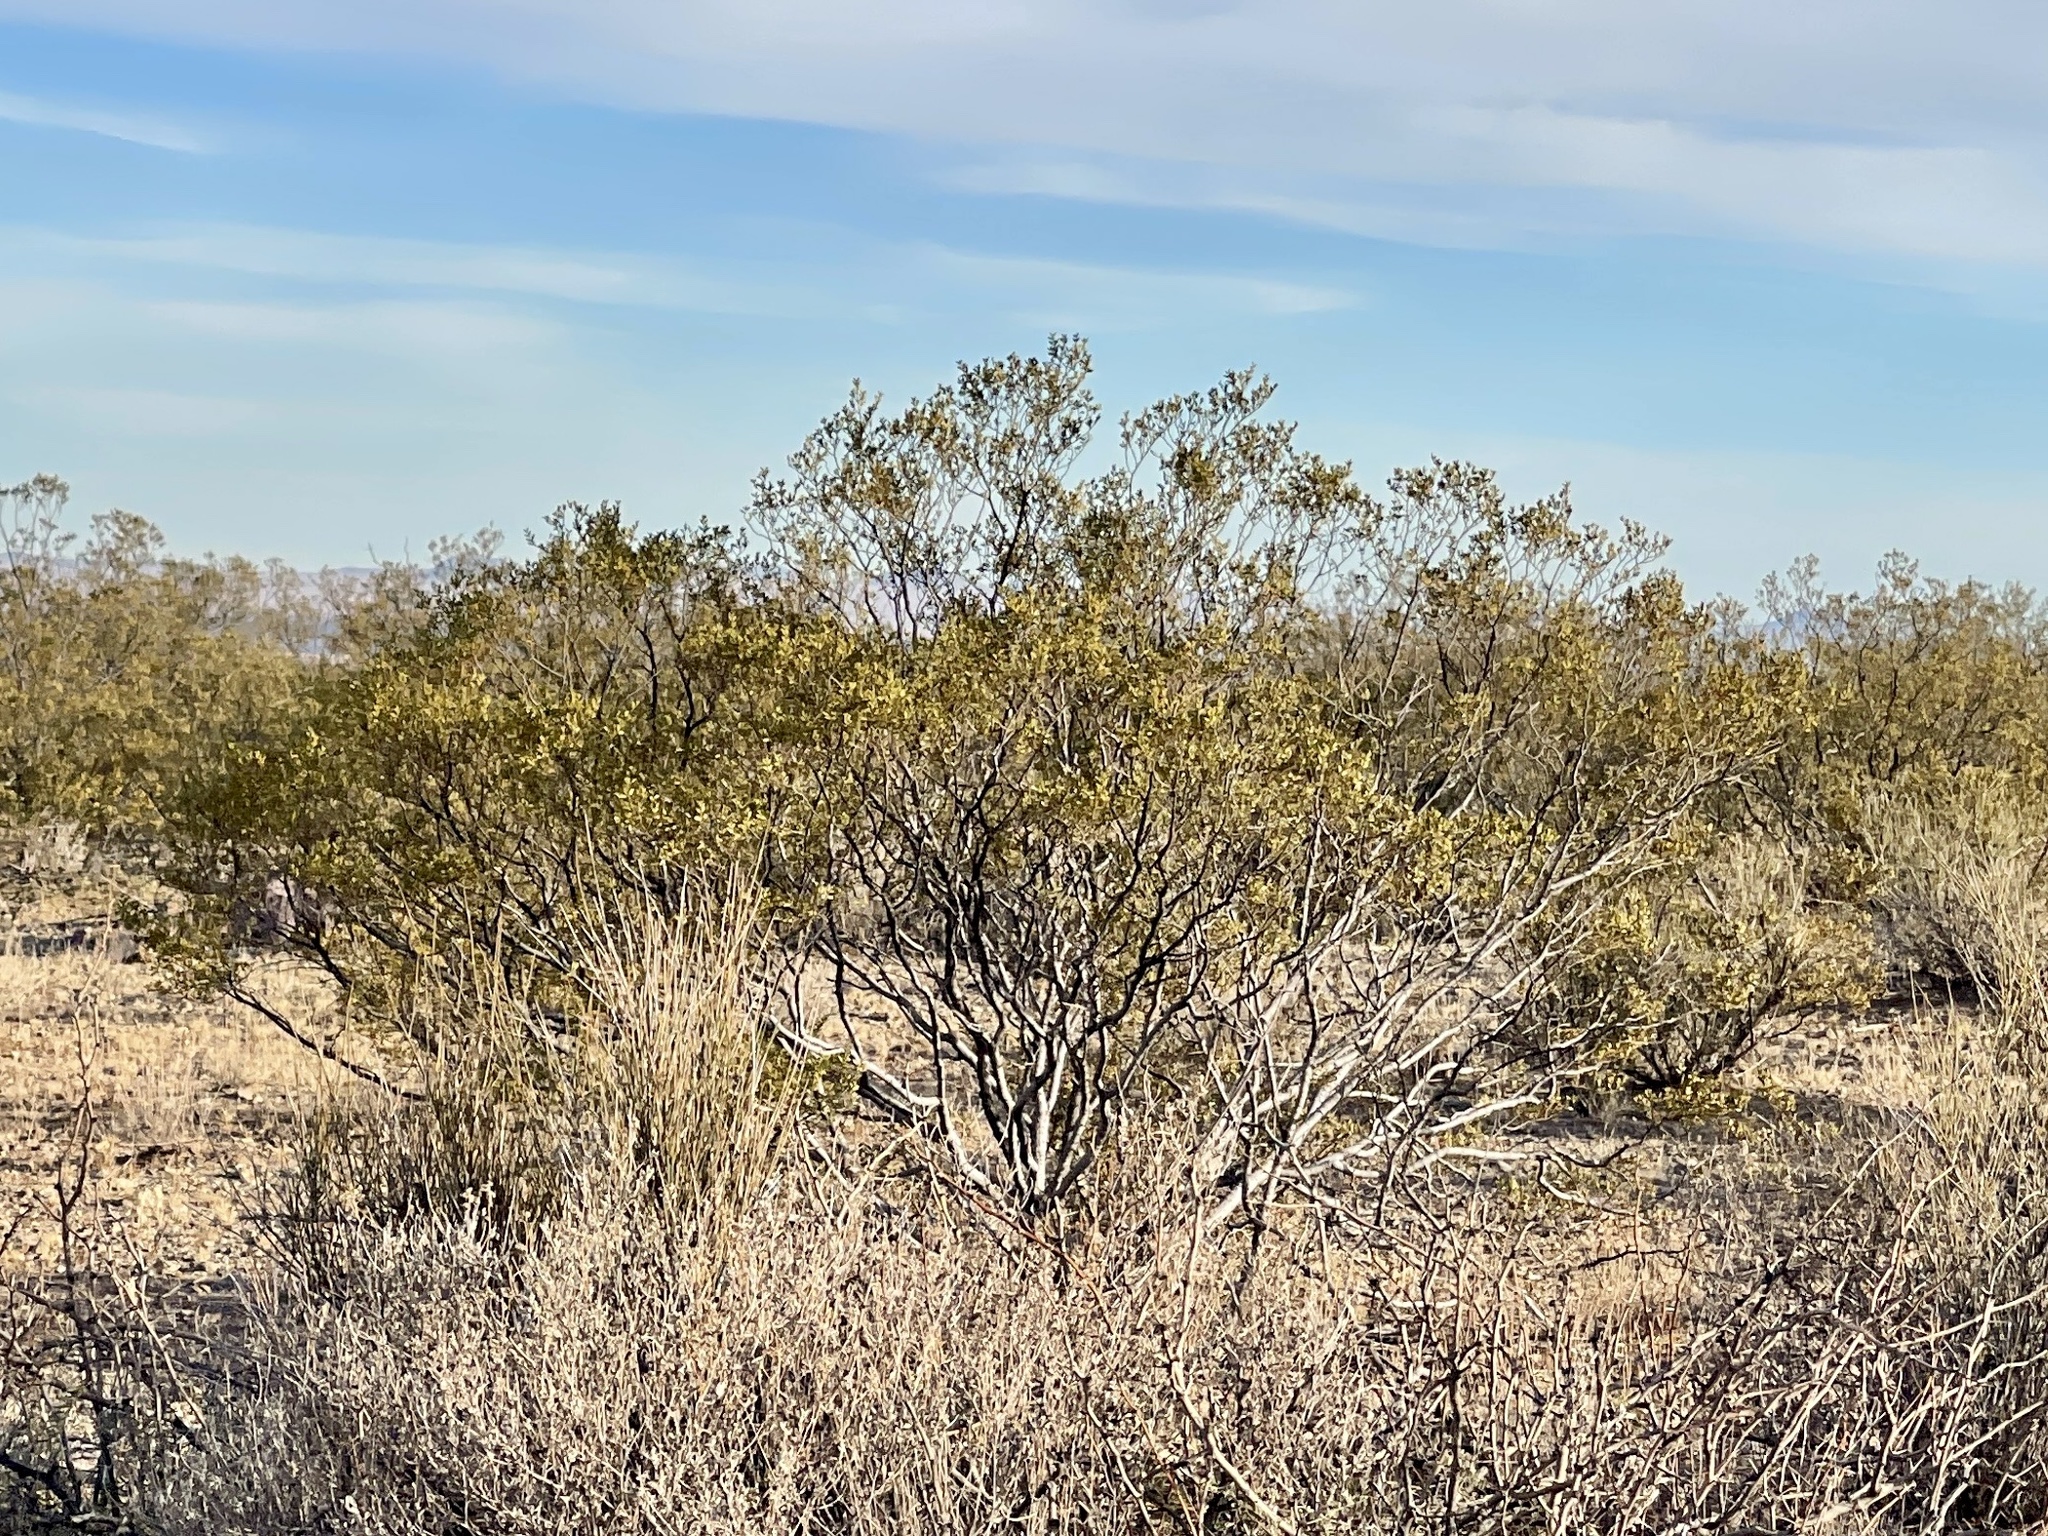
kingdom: Plantae
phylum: Tracheophyta
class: Magnoliopsida
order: Zygophyllales
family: Zygophyllaceae
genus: Larrea
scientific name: Larrea tridentata
